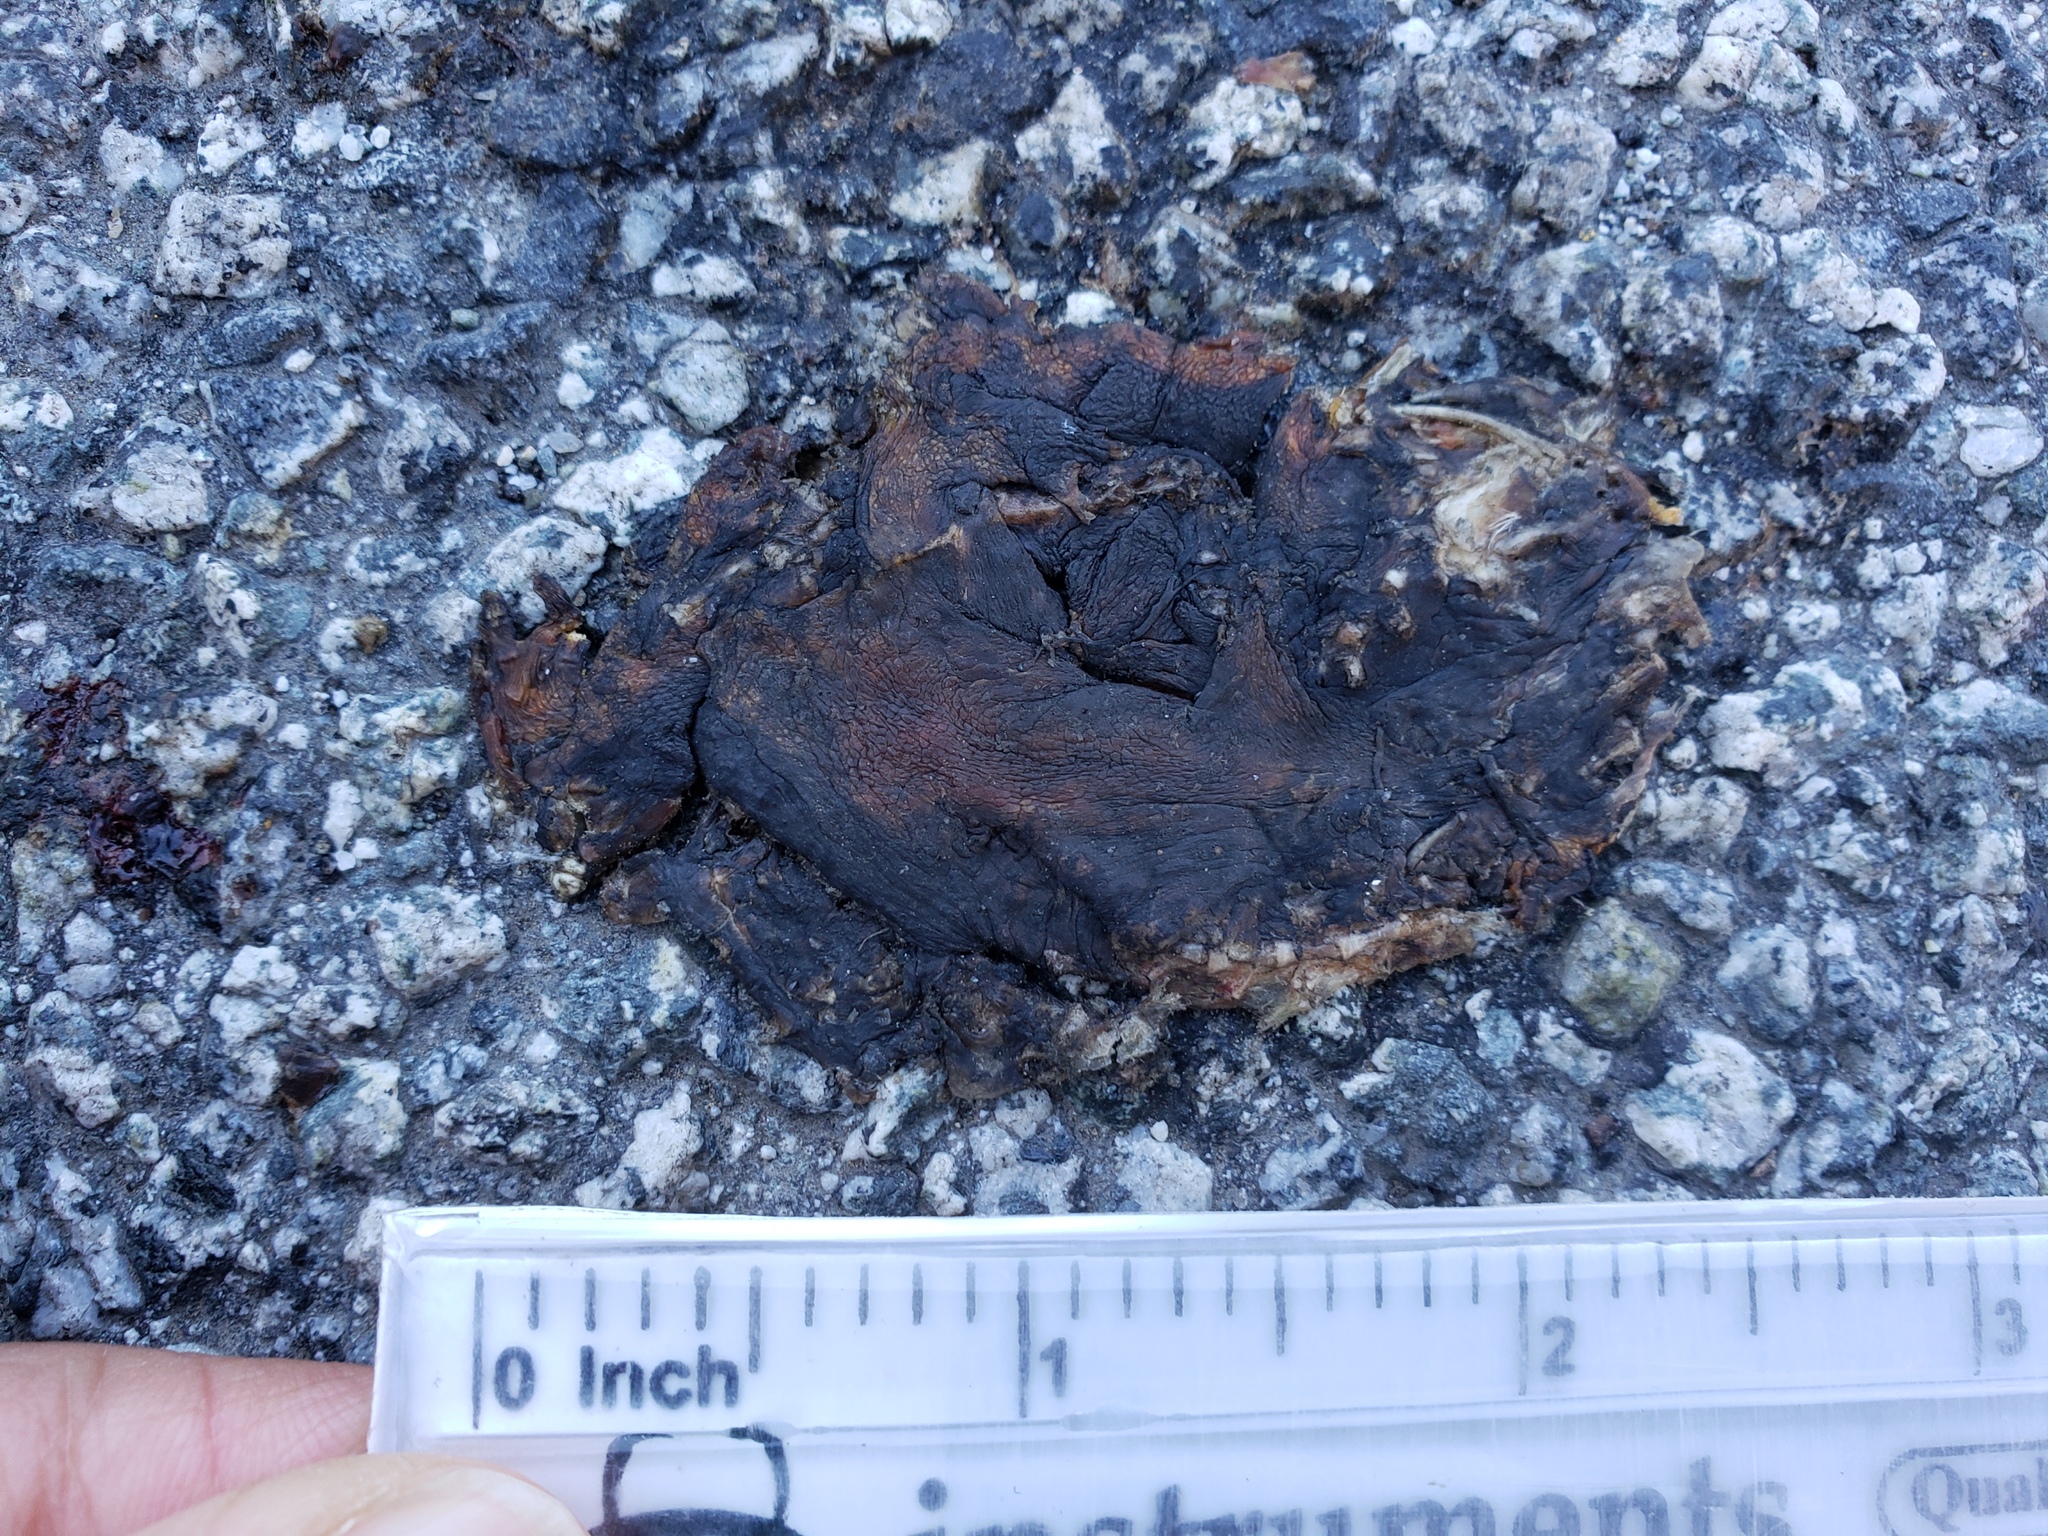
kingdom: Animalia
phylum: Chordata
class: Amphibia
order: Caudata
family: Salamandridae
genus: Taricha
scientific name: Taricha
